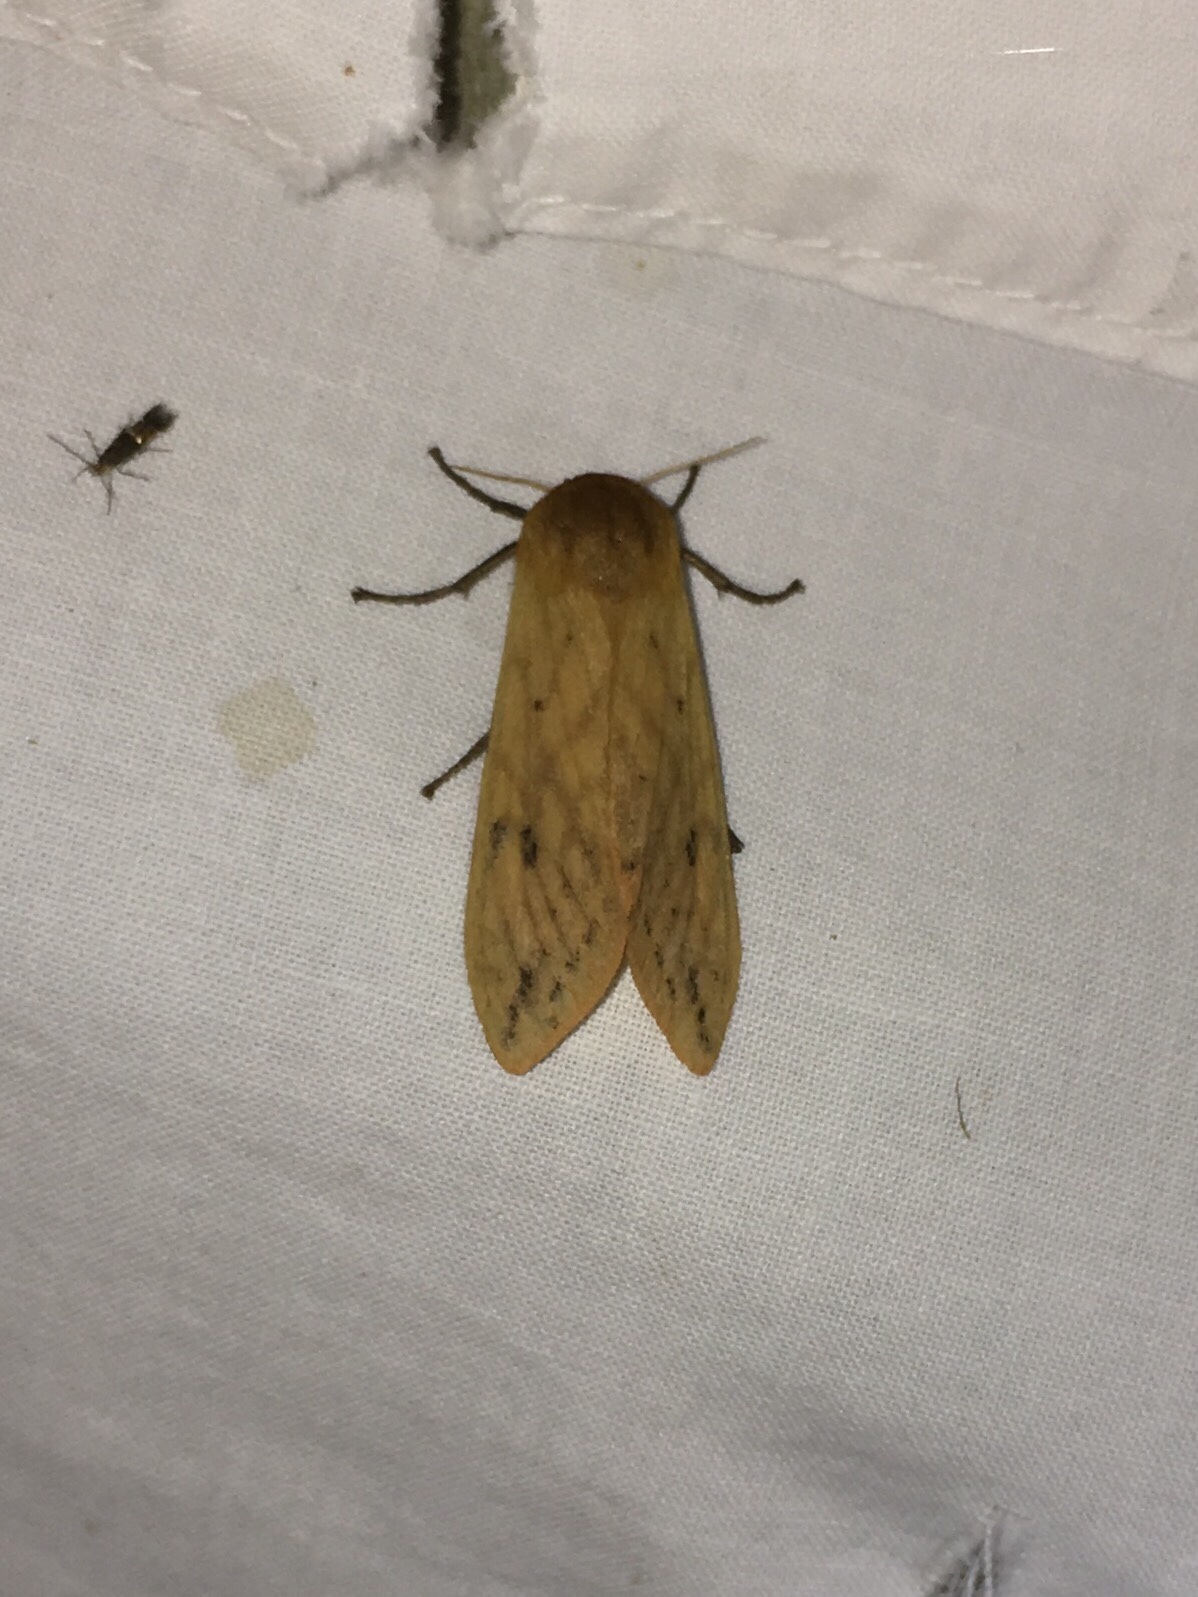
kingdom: Animalia
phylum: Arthropoda
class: Insecta
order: Lepidoptera
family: Erebidae
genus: Pyrrharctia
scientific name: Pyrrharctia isabella
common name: Isabella tiger moth
